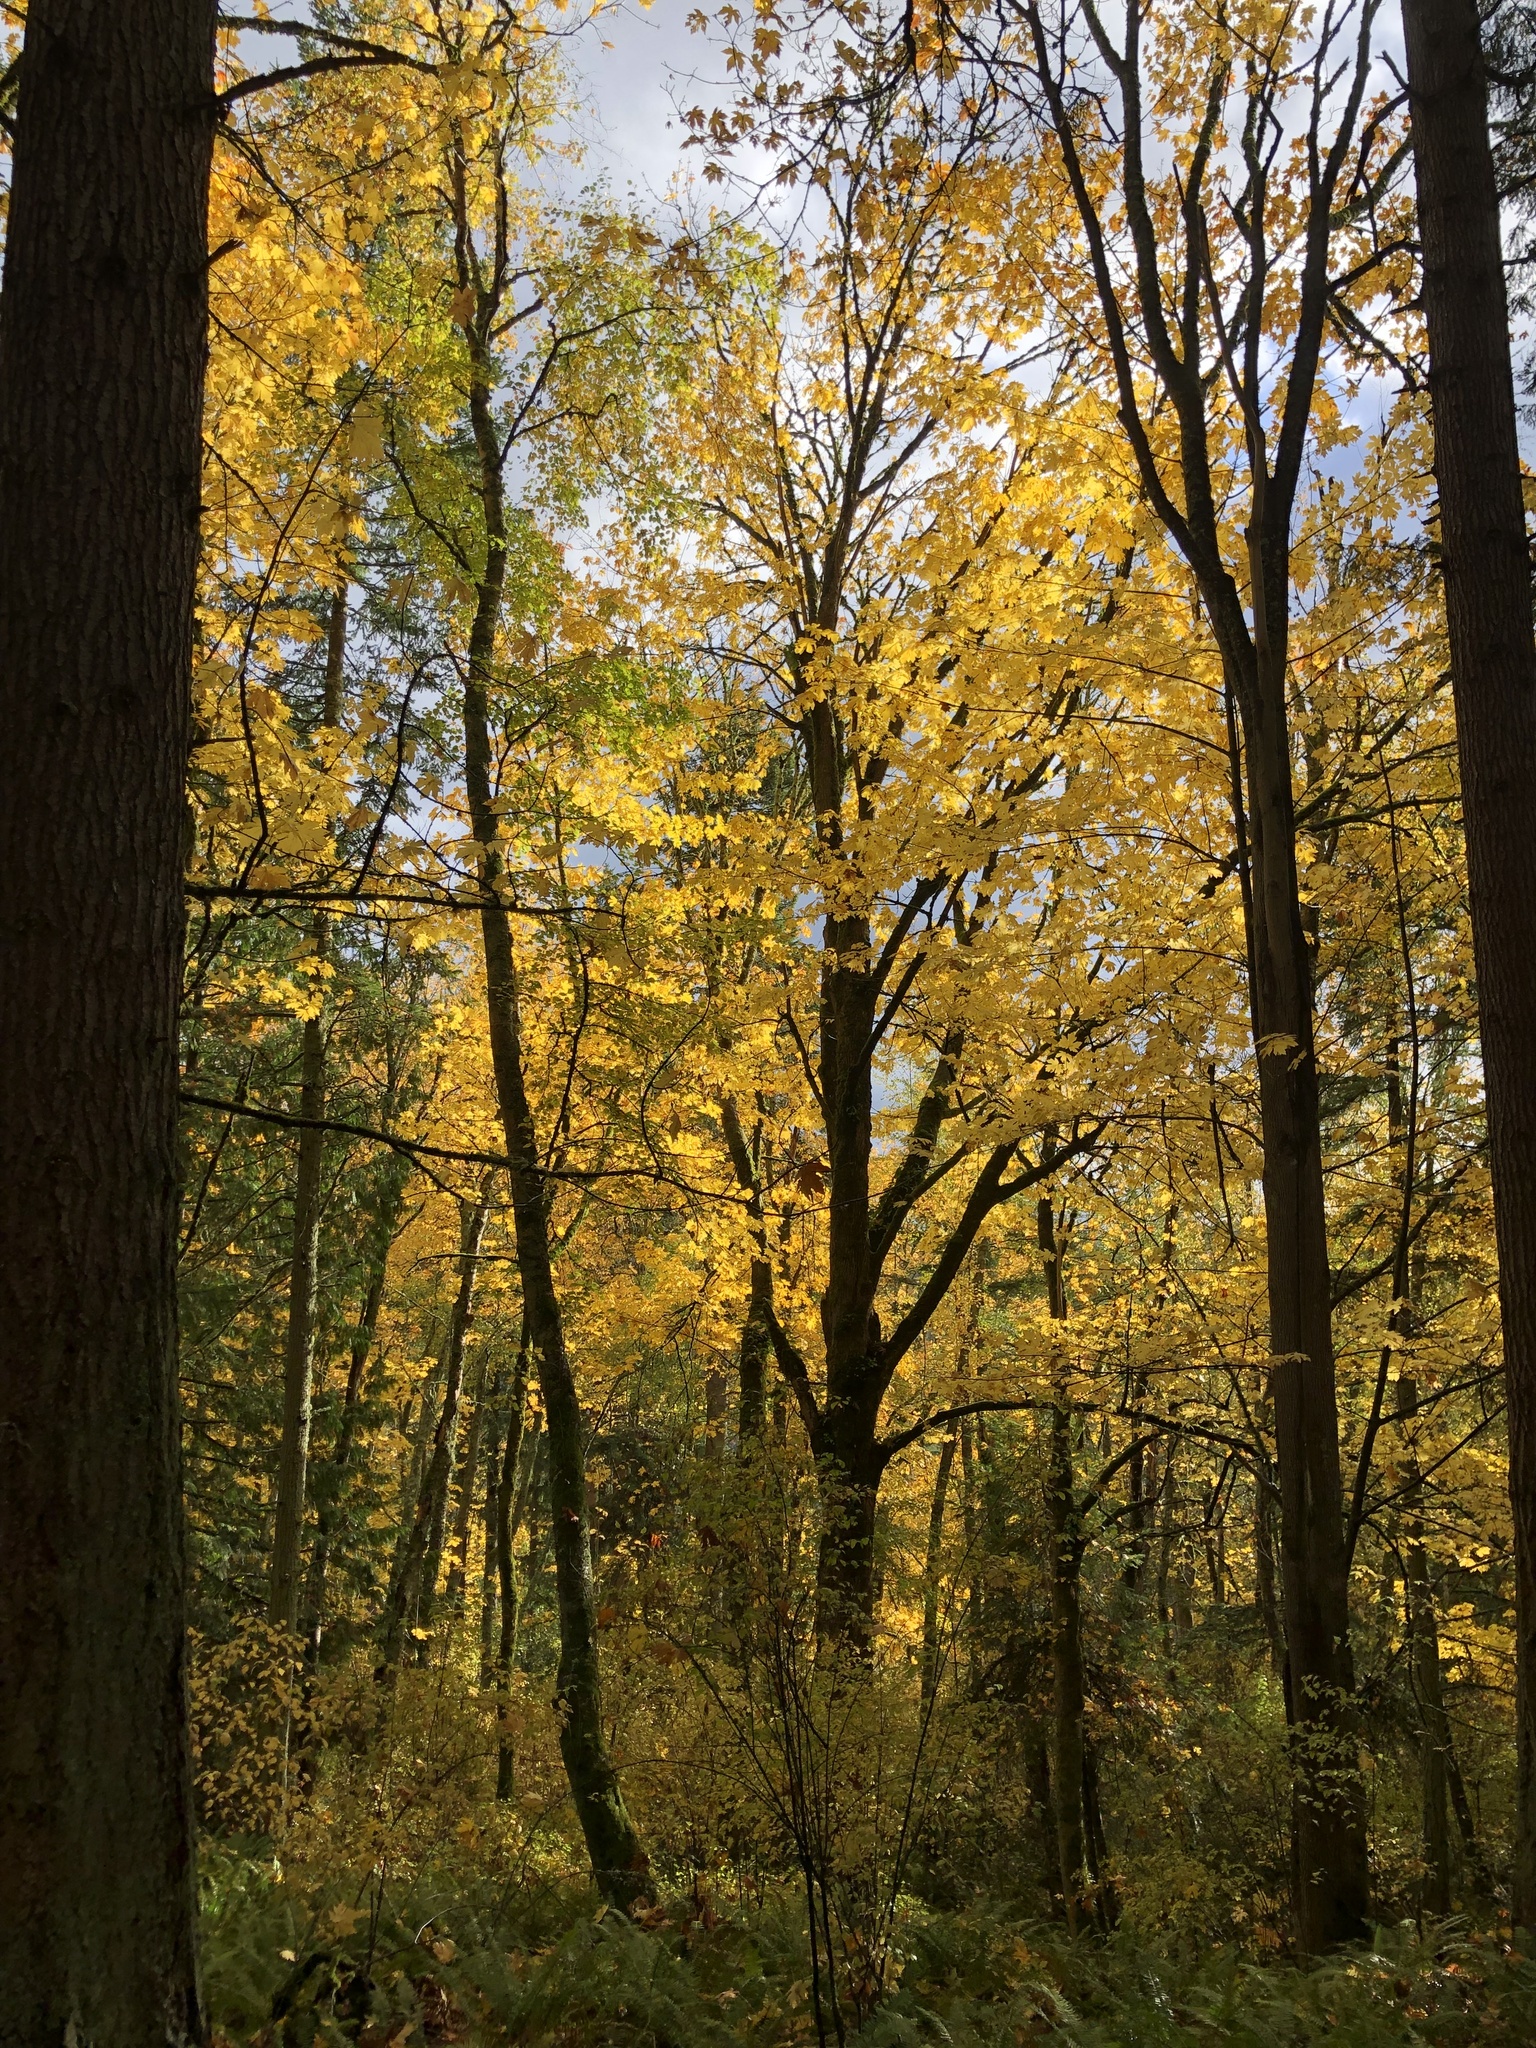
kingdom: Plantae
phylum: Tracheophyta
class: Magnoliopsida
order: Sapindales
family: Sapindaceae
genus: Acer
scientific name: Acer macrophyllum
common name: Oregon maple
